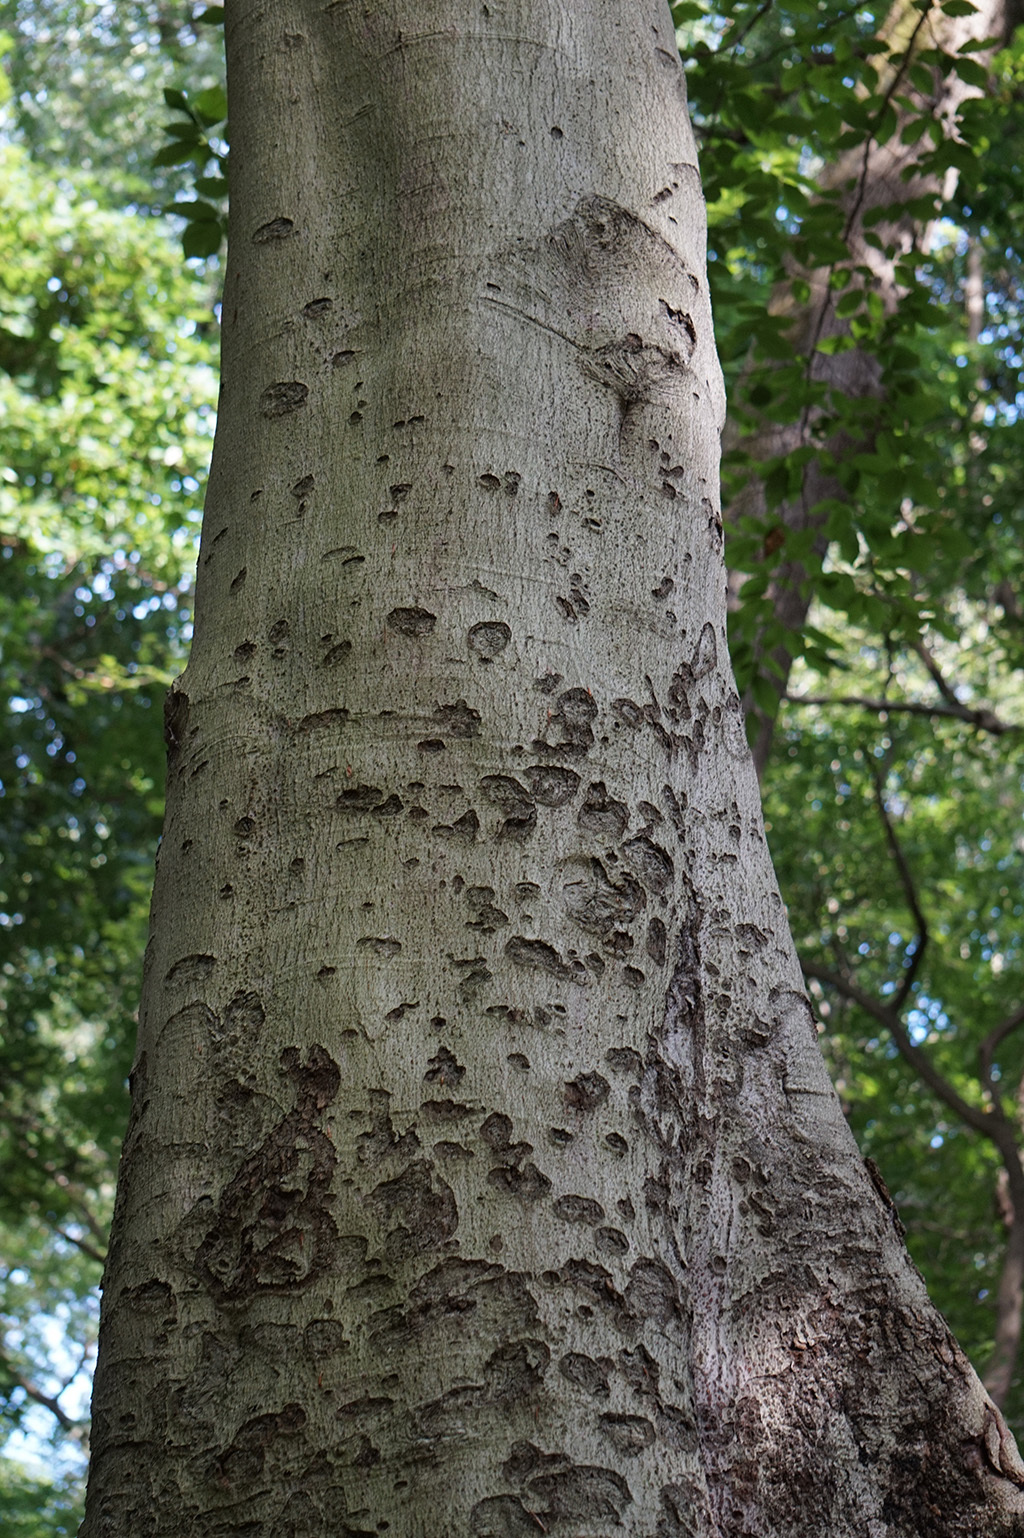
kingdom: Plantae
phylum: Tracheophyta
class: Magnoliopsida
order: Fagales
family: Fagaceae
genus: Fagus
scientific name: Fagus grandifolia
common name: American beech
